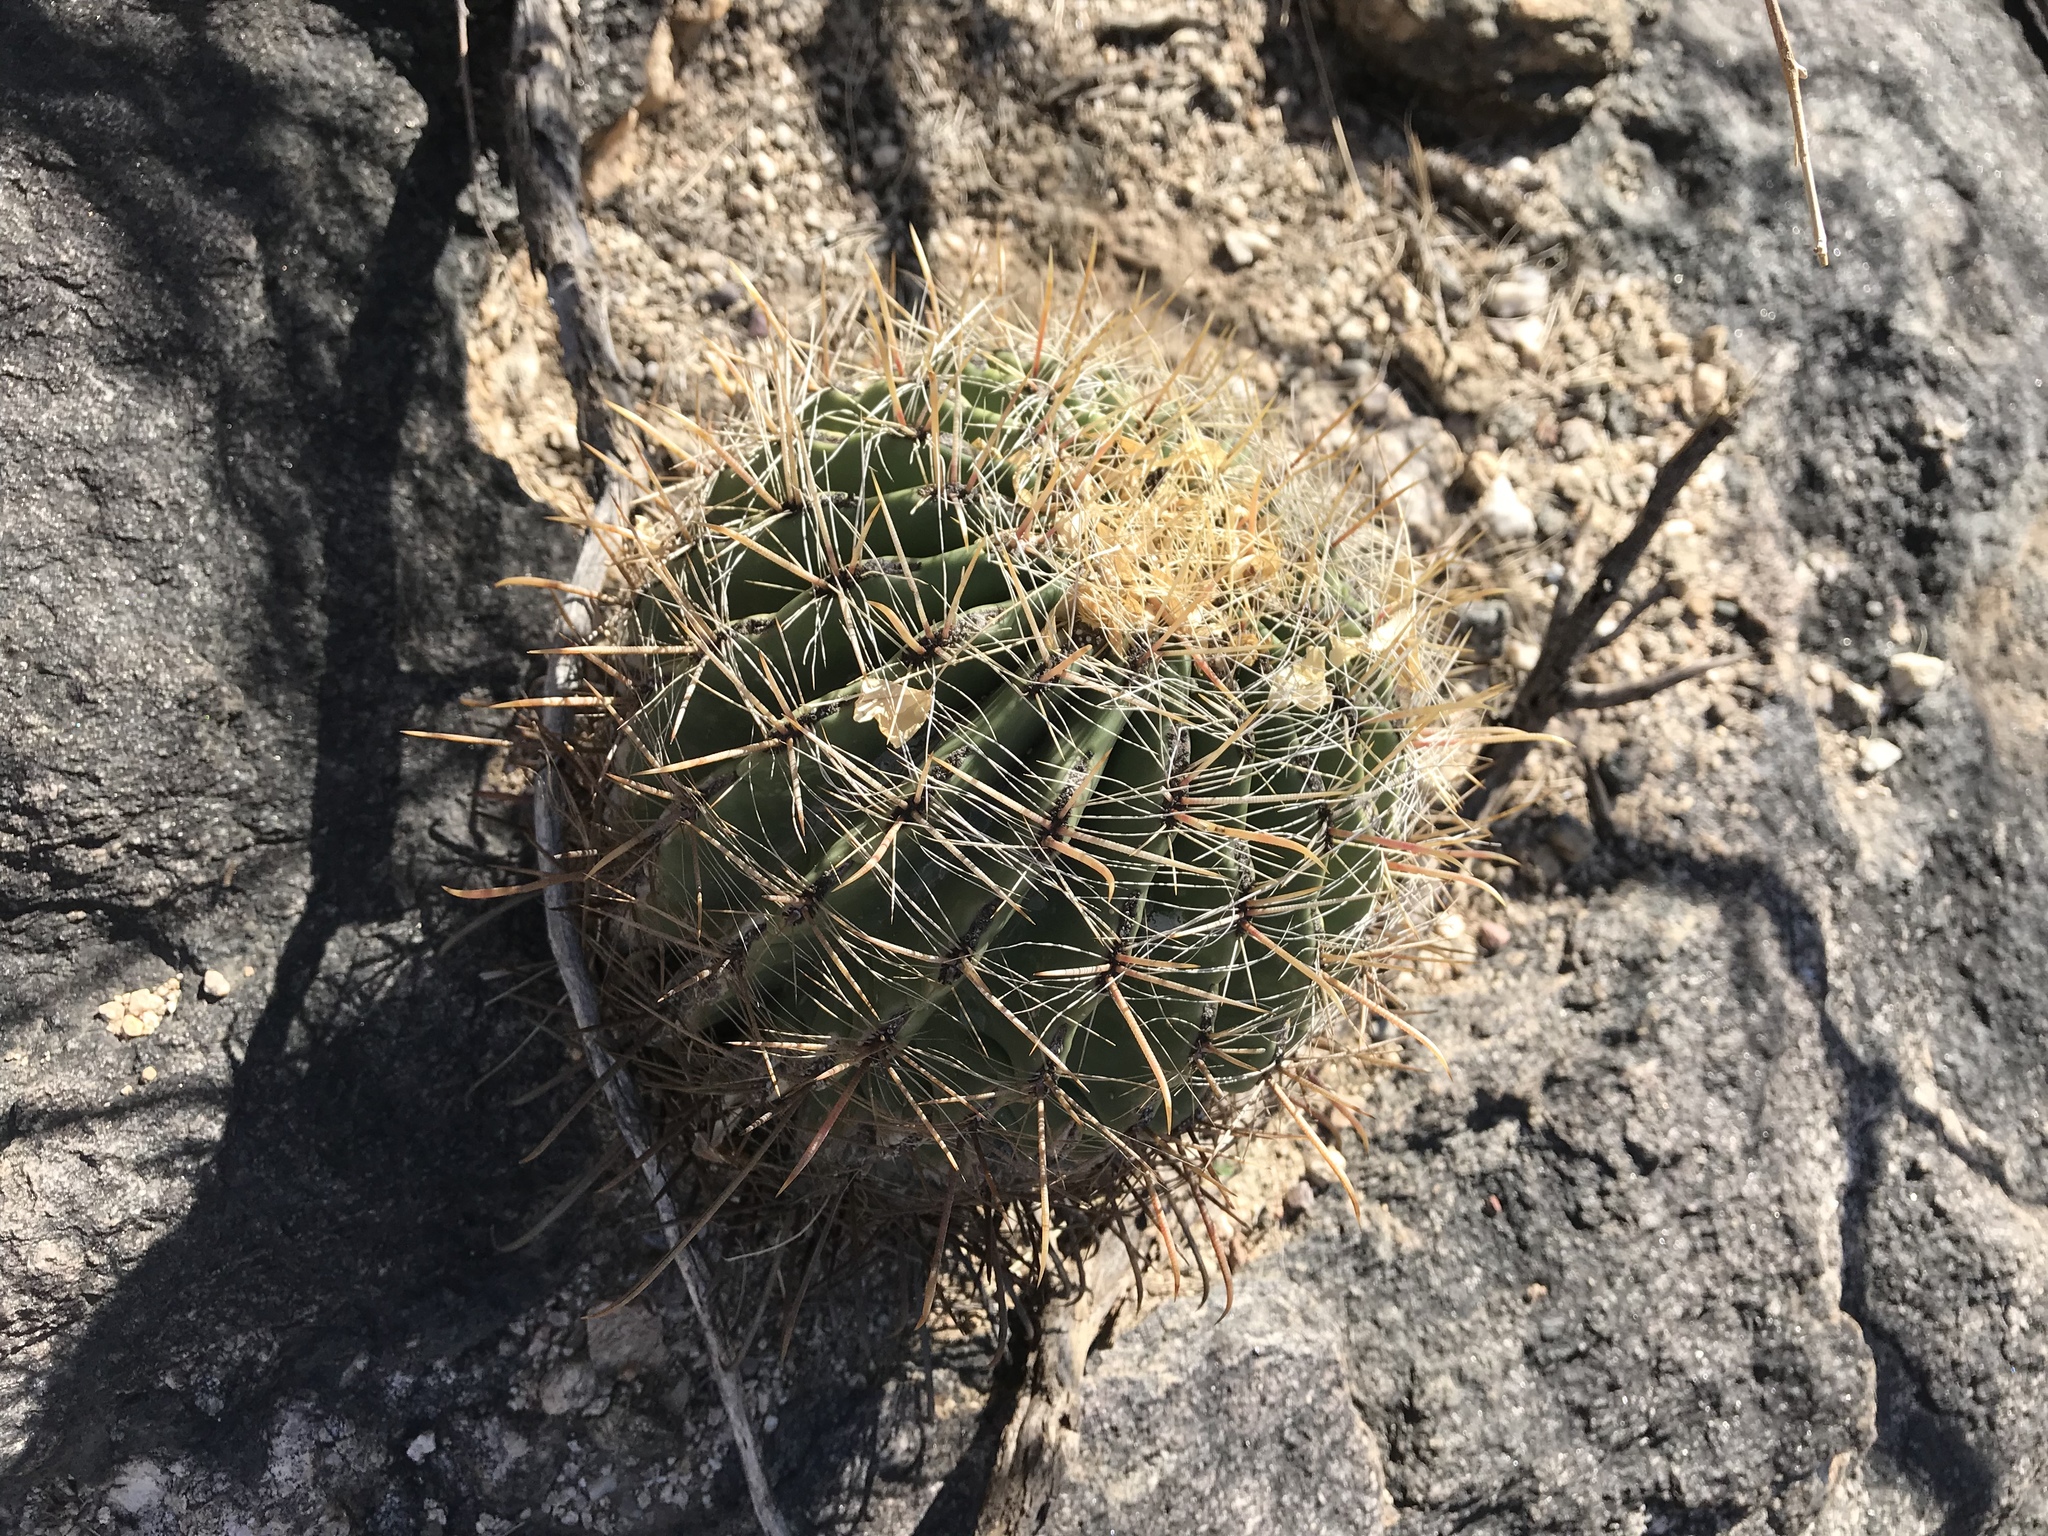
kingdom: Plantae
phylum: Tracheophyta
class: Magnoliopsida
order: Caryophyllales
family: Cactaceae
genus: Ferocactus
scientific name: Ferocactus wislizeni
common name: Candy barrel cactus
